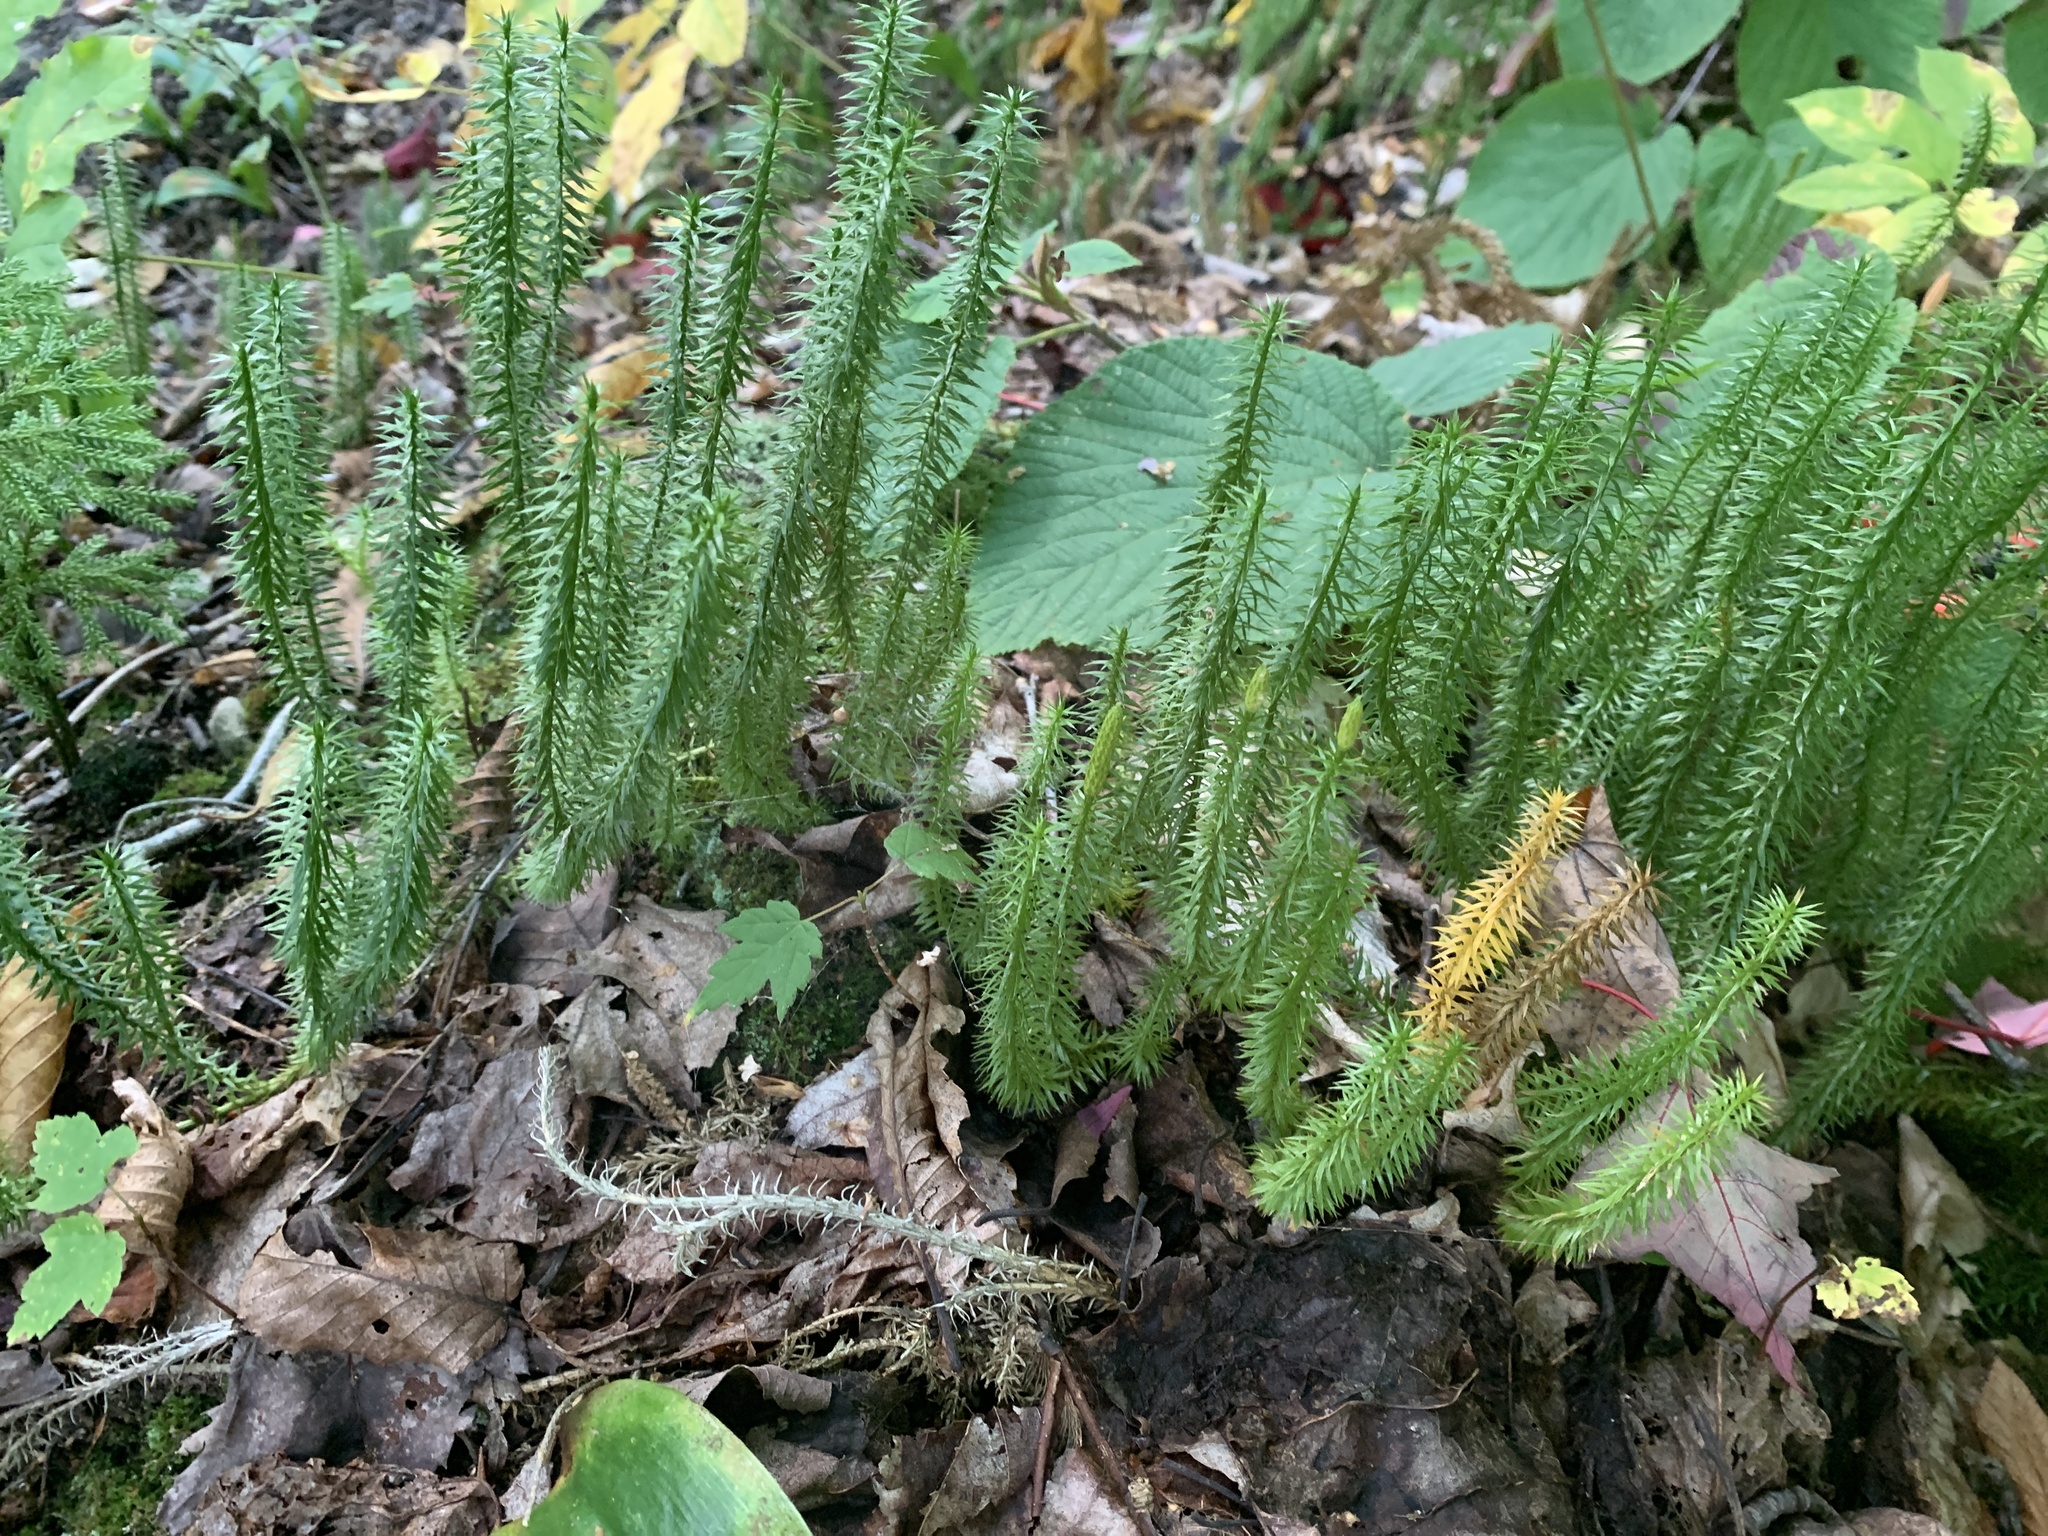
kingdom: Plantae
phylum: Tracheophyta
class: Lycopodiopsida
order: Lycopodiales
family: Lycopodiaceae
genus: Spinulum
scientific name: Spinulum annotinum
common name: Interrupted club-moss
